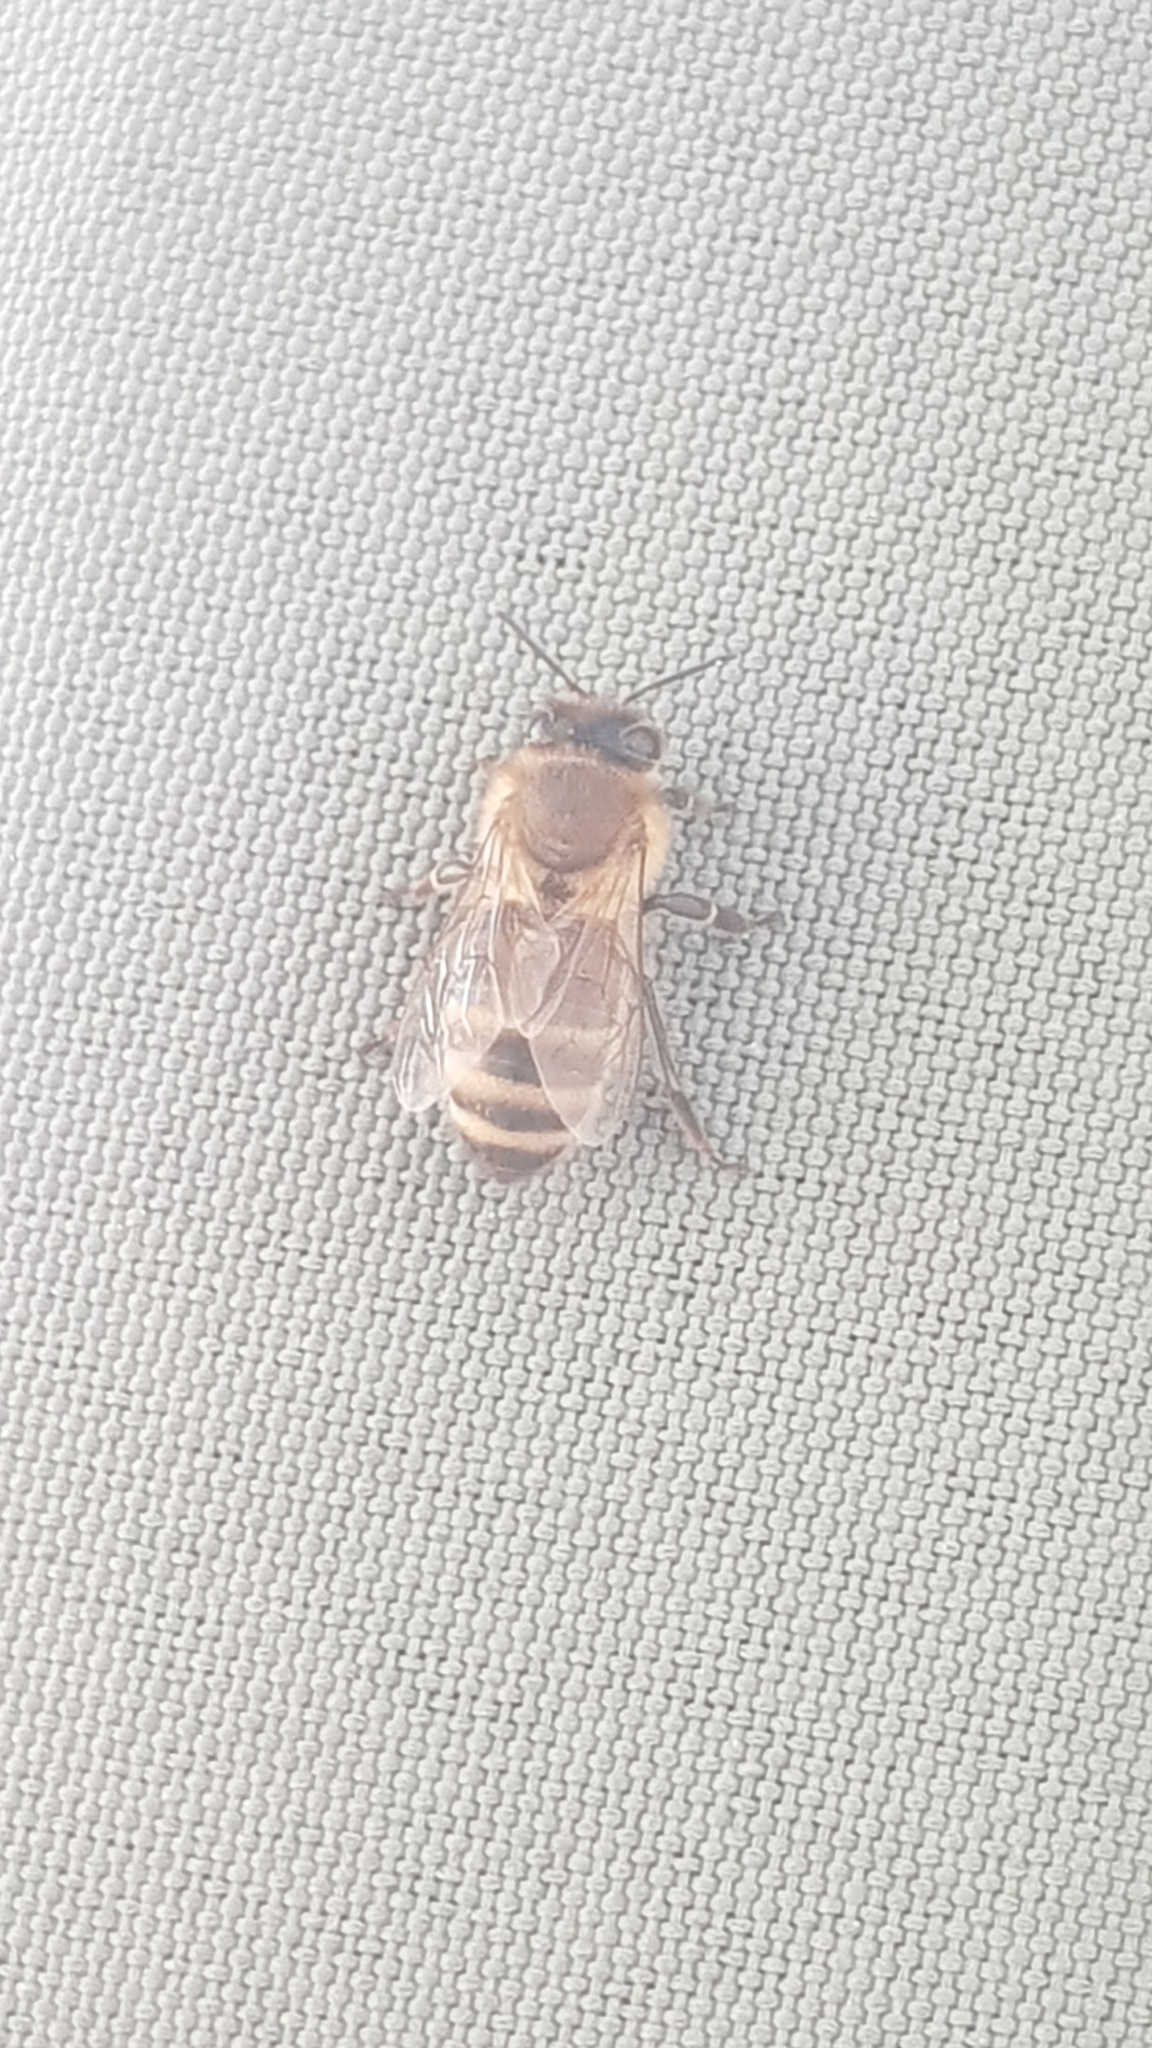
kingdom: Animalia
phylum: Arthropoda
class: Insecta
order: Hymenoptera
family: Apidae
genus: Apis
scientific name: Apis mellifera
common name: Honey bee
